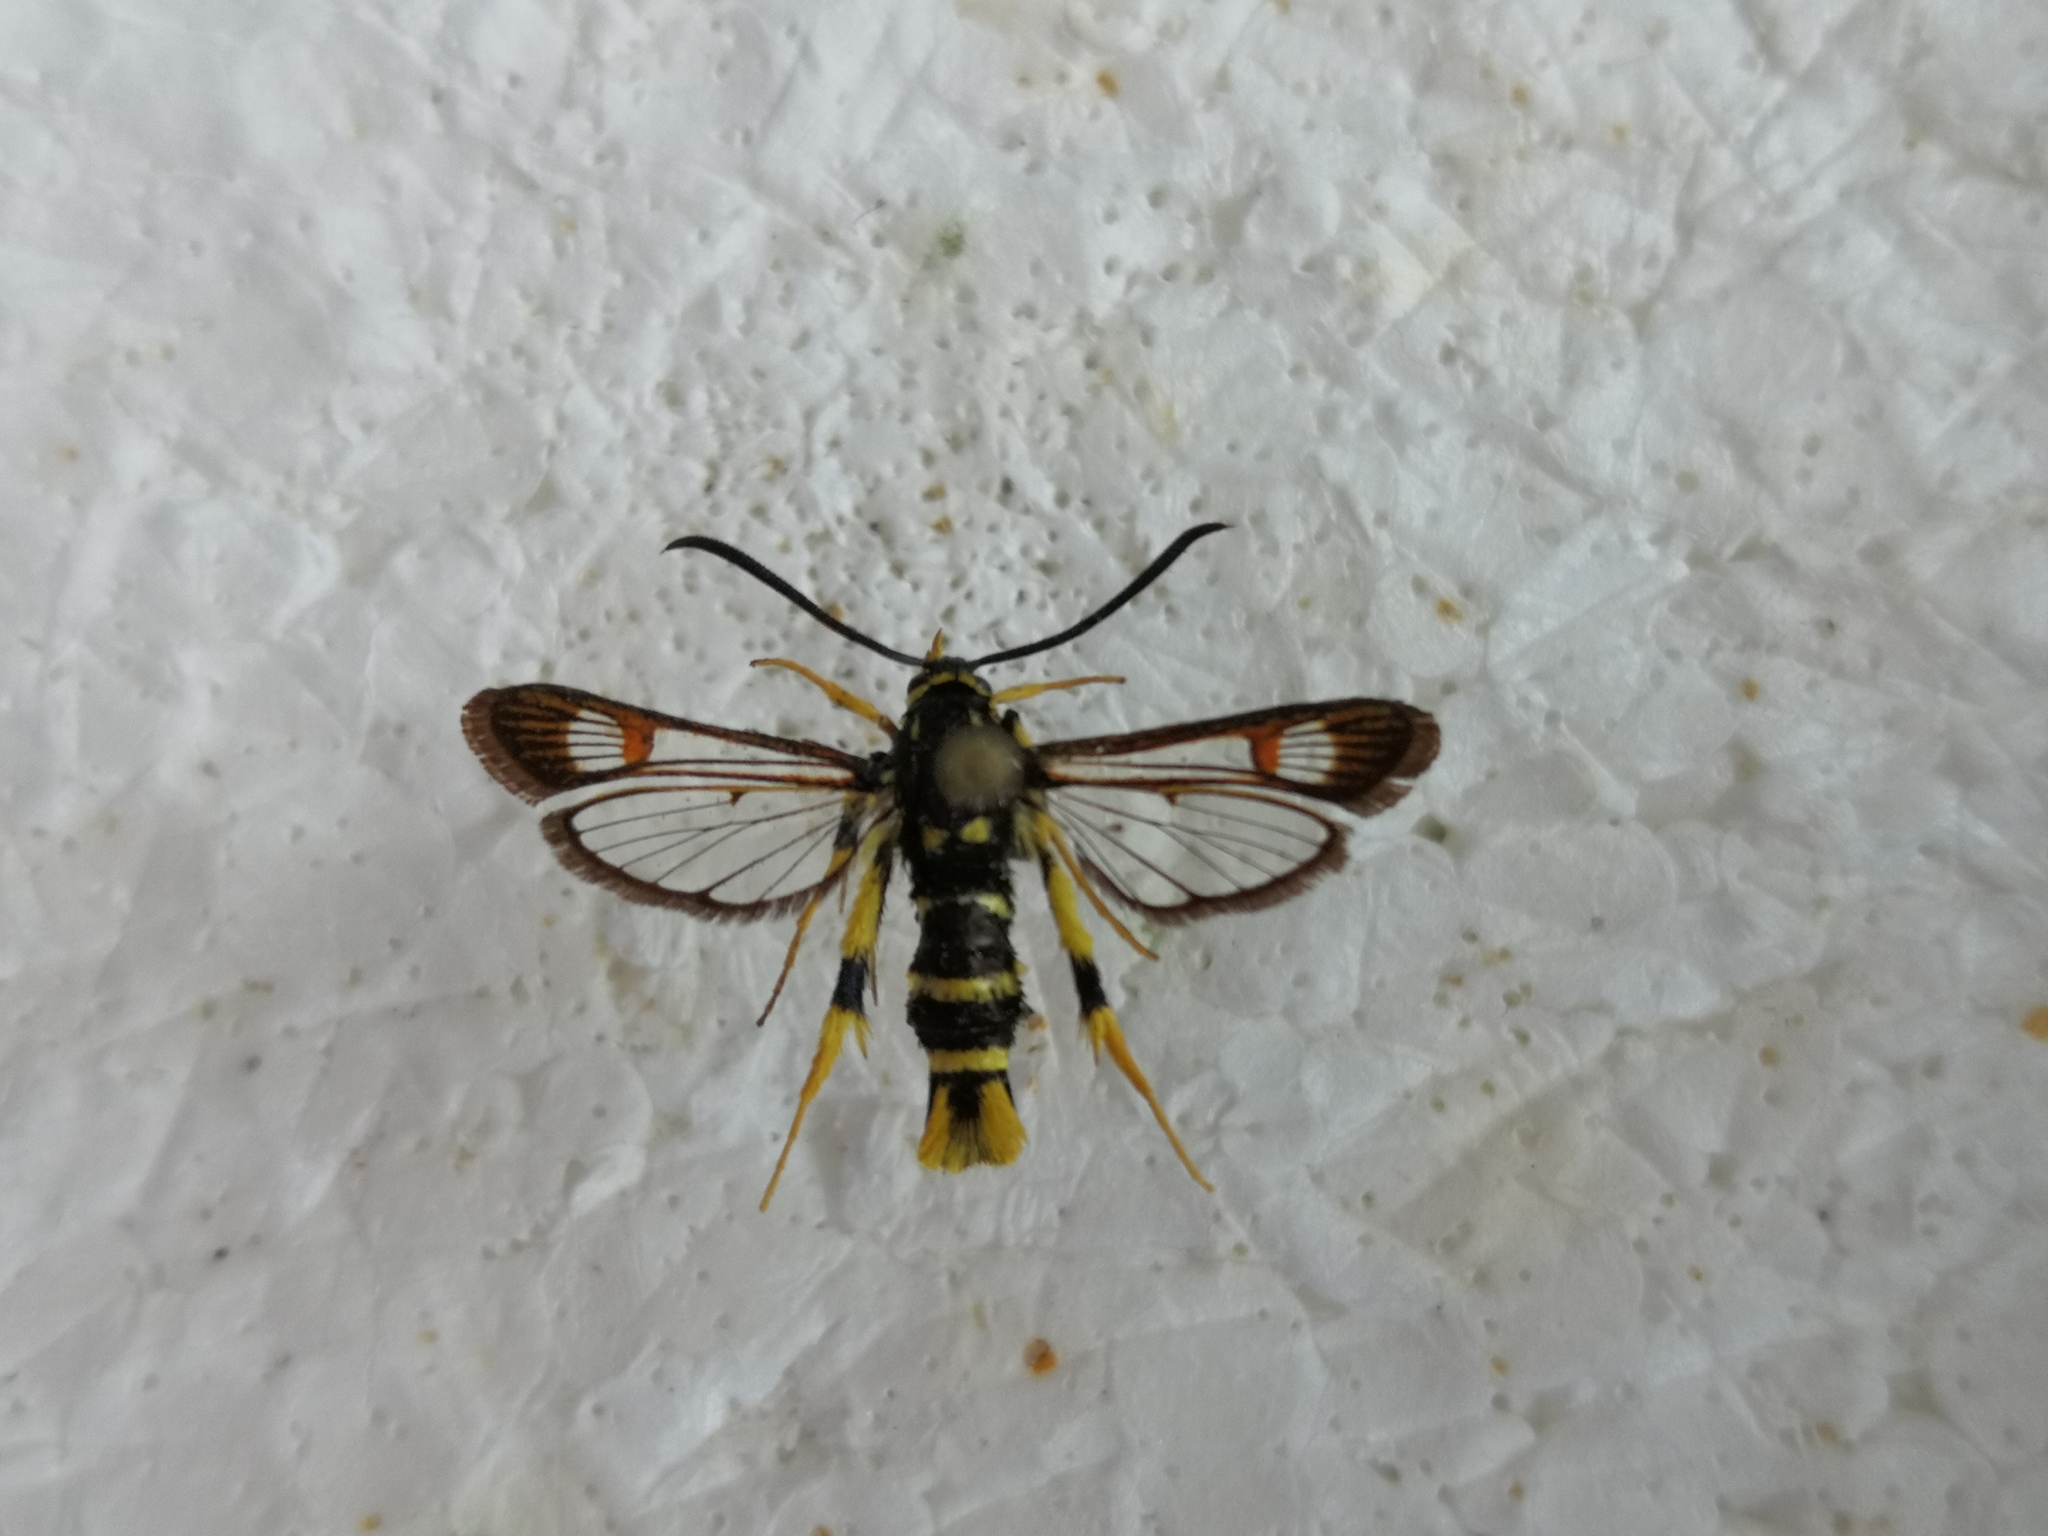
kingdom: Animalia
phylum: Arthropoda
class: Insecta
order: Lepidoptera
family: Sesiidae
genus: Synanthedon
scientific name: Synanthedon vespiformis
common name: Yellow-legged clearwing
